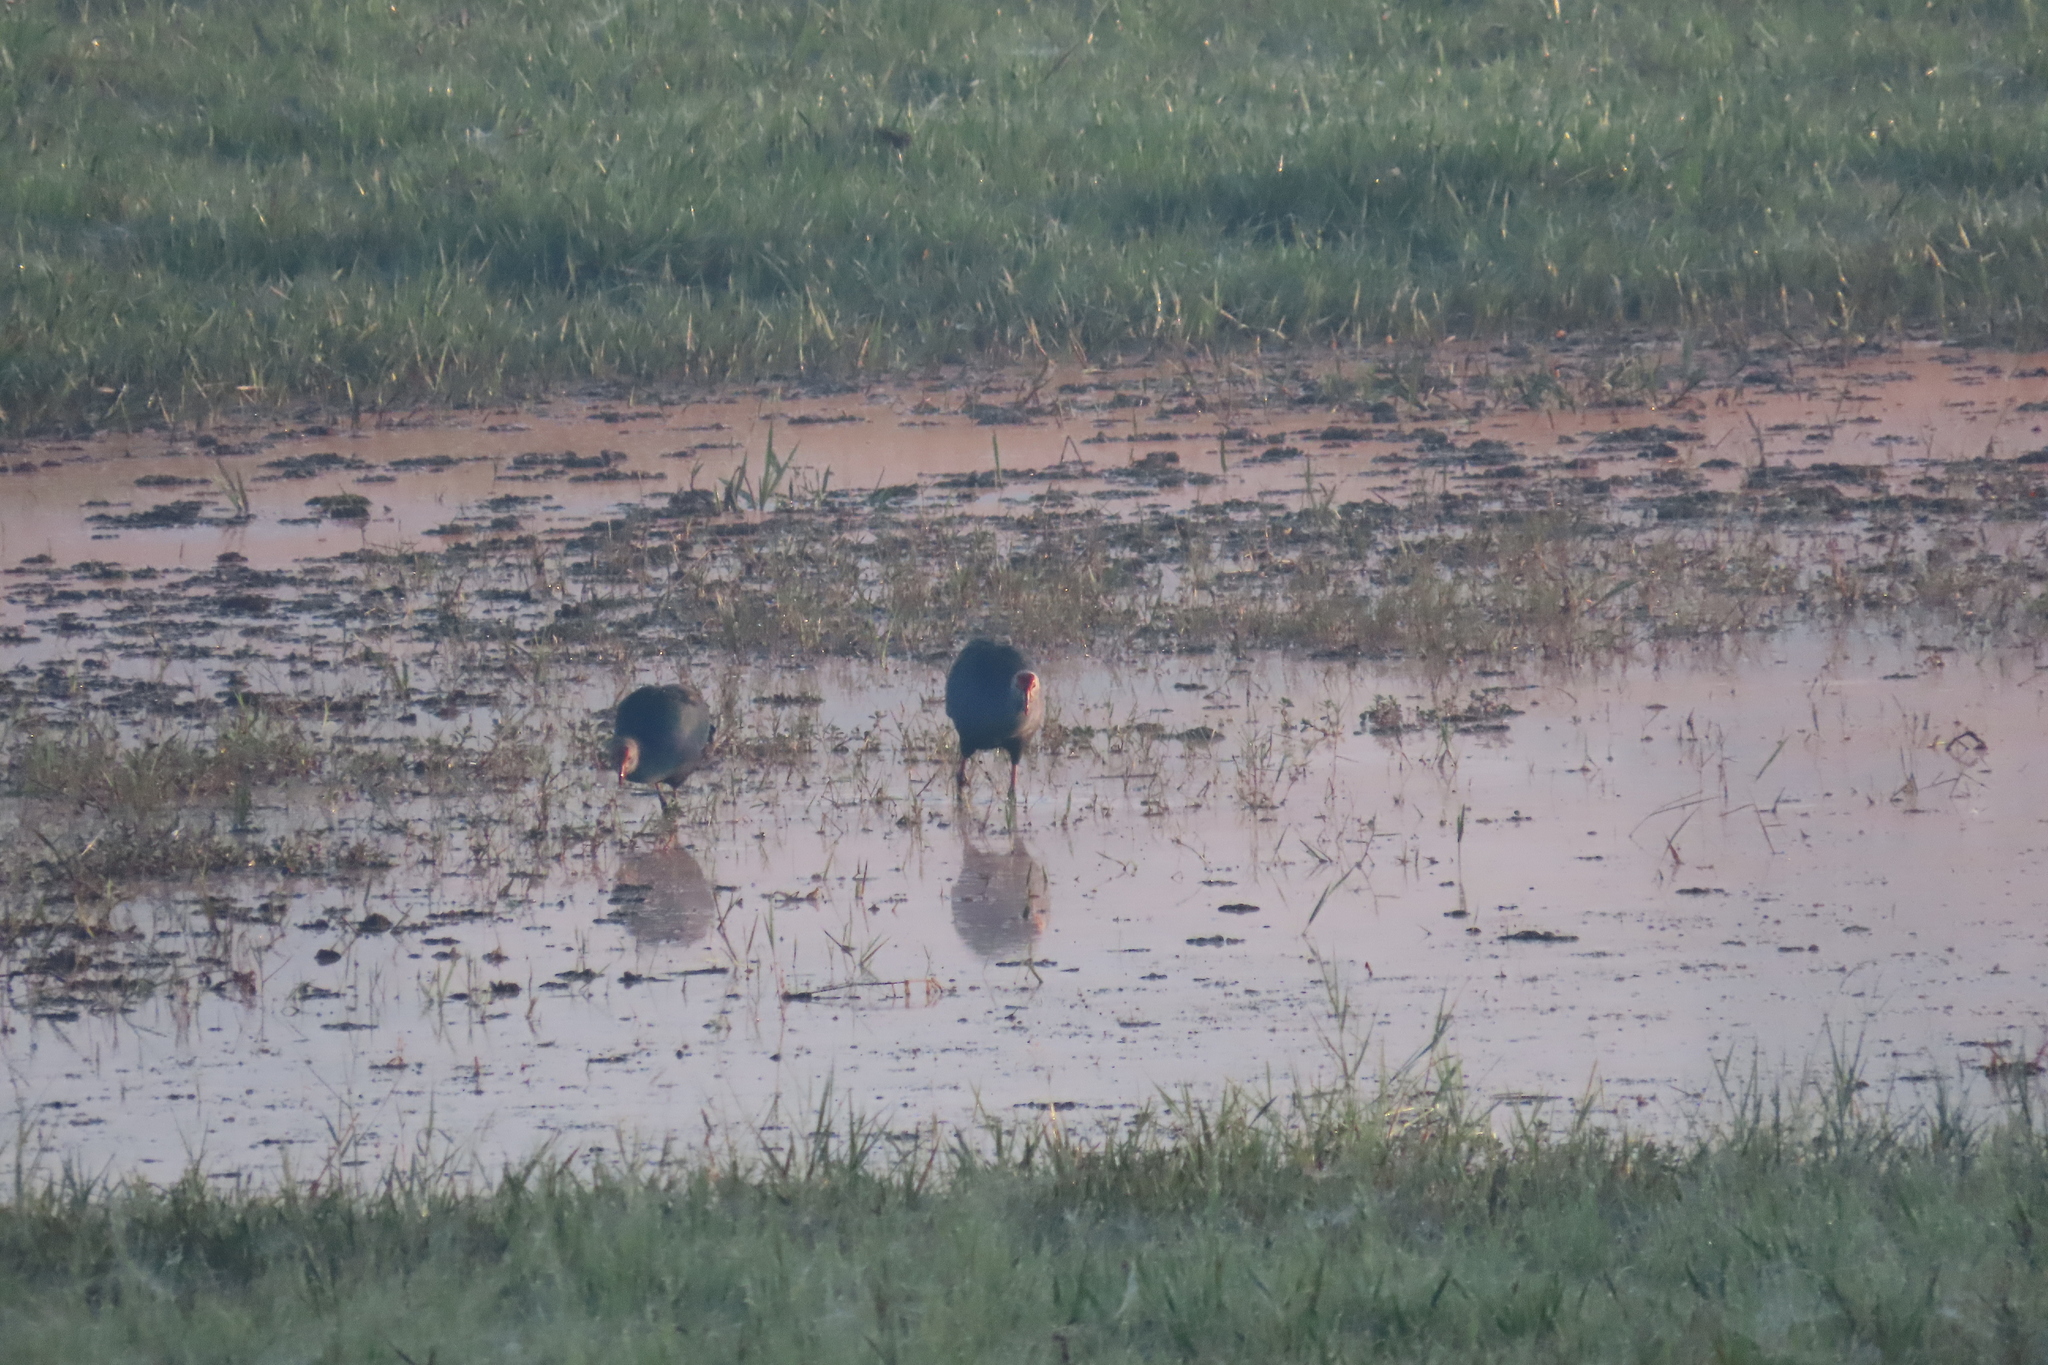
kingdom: Animalia
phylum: Chordata
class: Aves
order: Gruiformes
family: Rallidae
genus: Porphyrio
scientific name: Porphyrio porphyrio
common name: Purple swamphen
